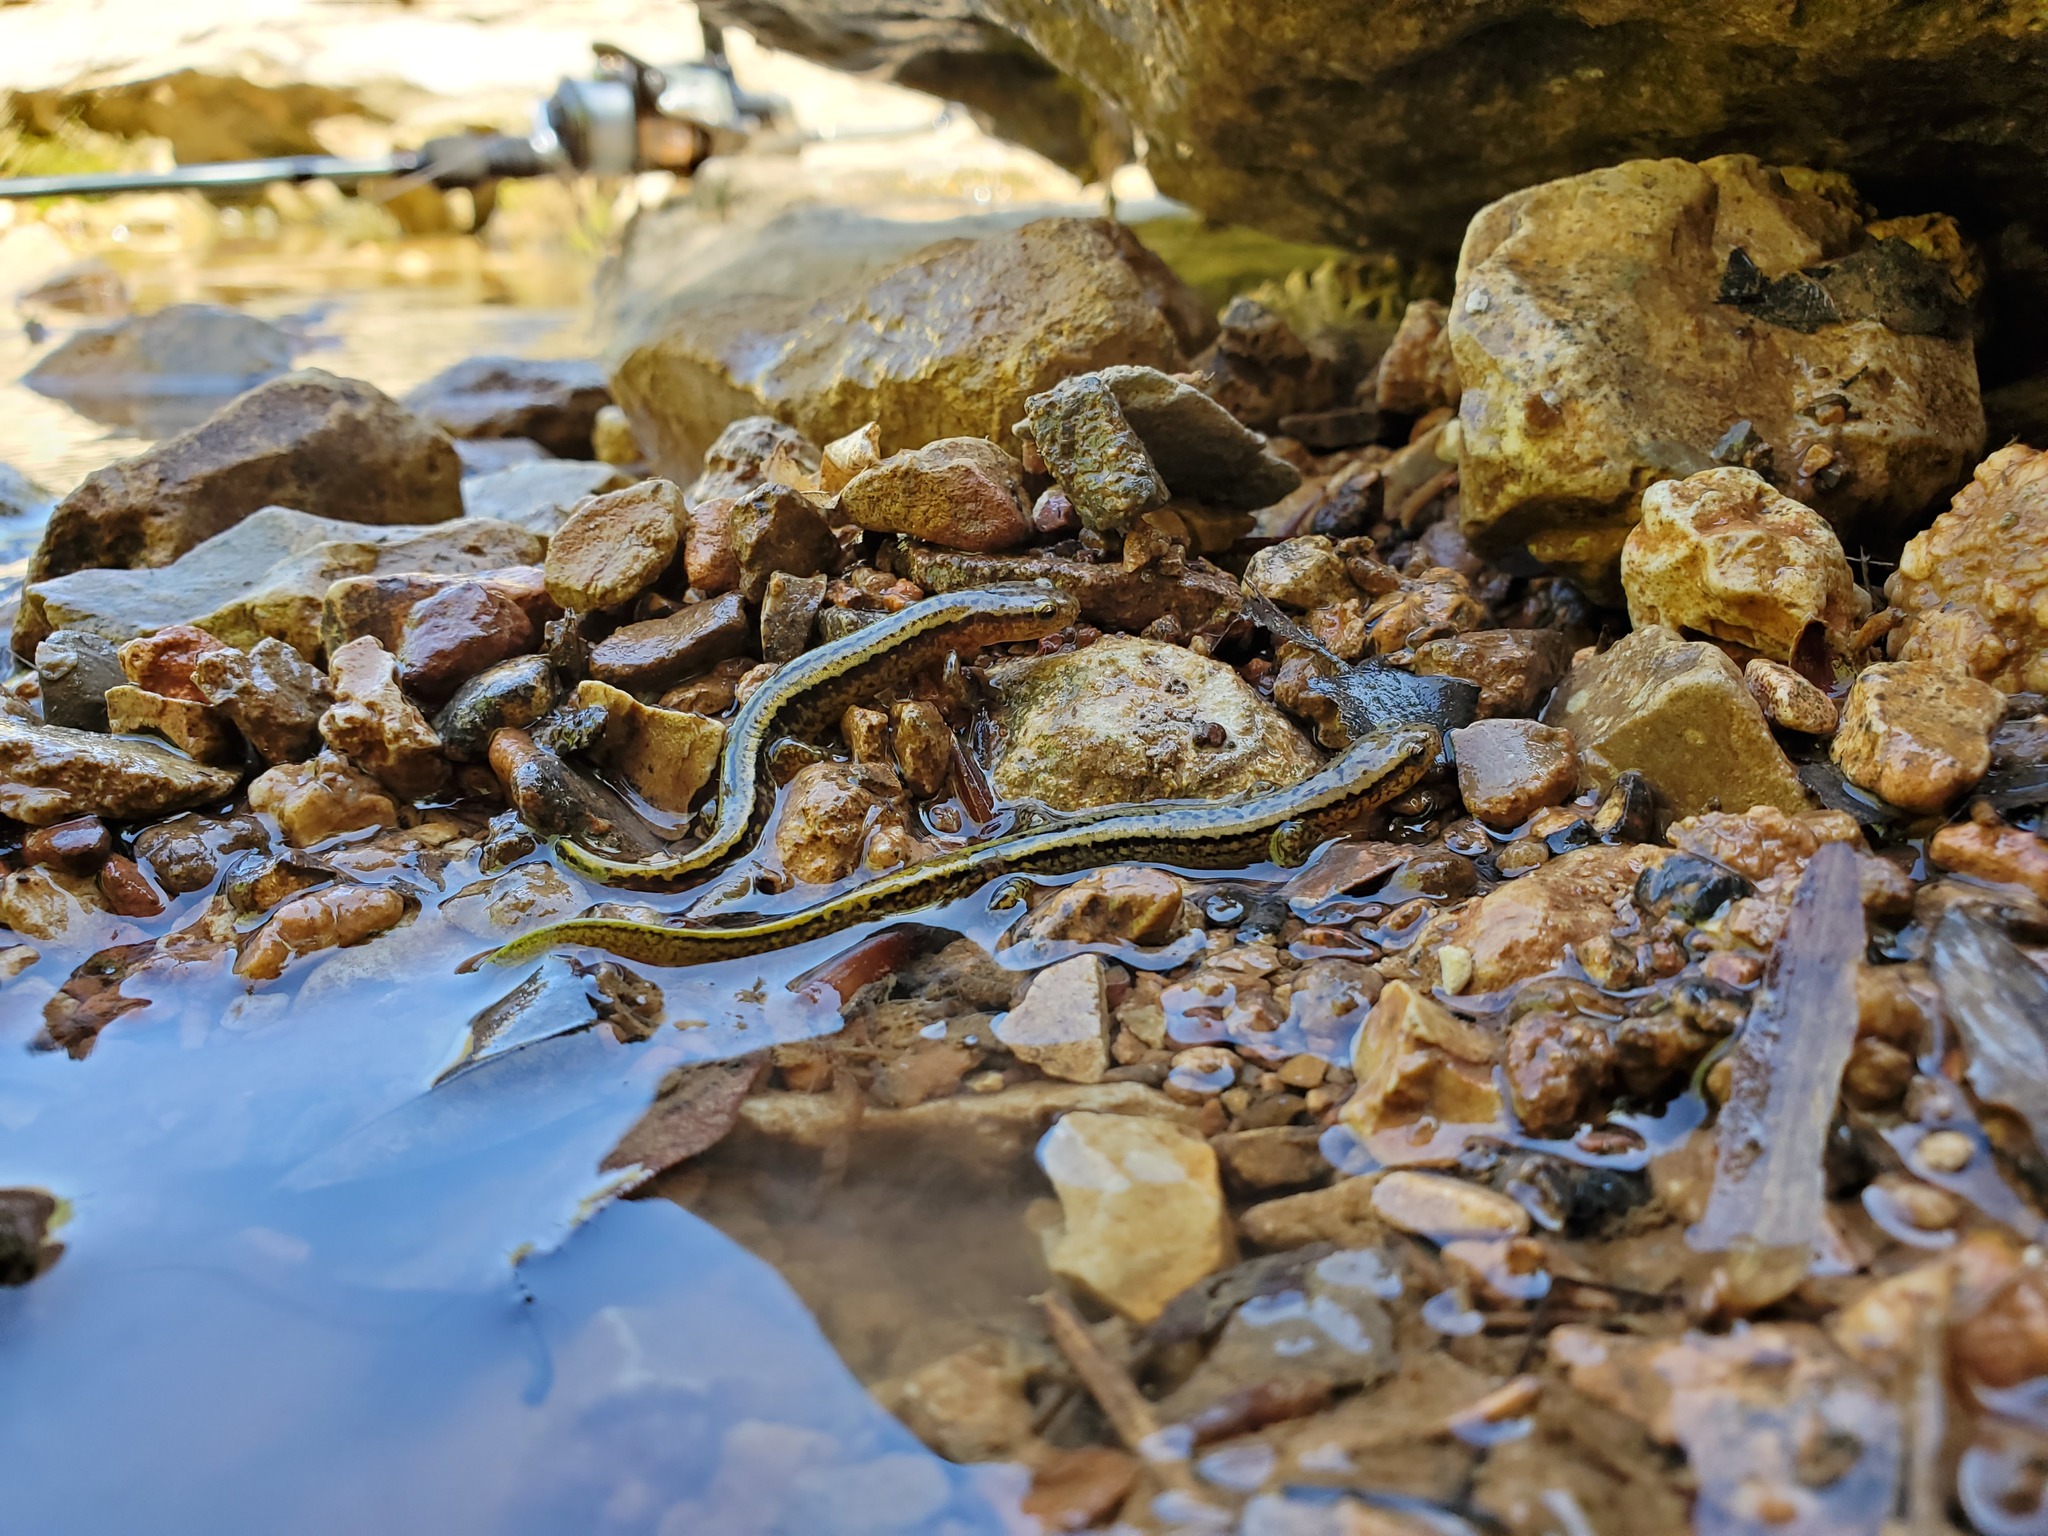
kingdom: Animalia
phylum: Chordata
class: Amphibia
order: Caudata
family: Plethodontidae
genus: Eurycea
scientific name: Eurycea cirrigera
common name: Southern two-lined salamander
